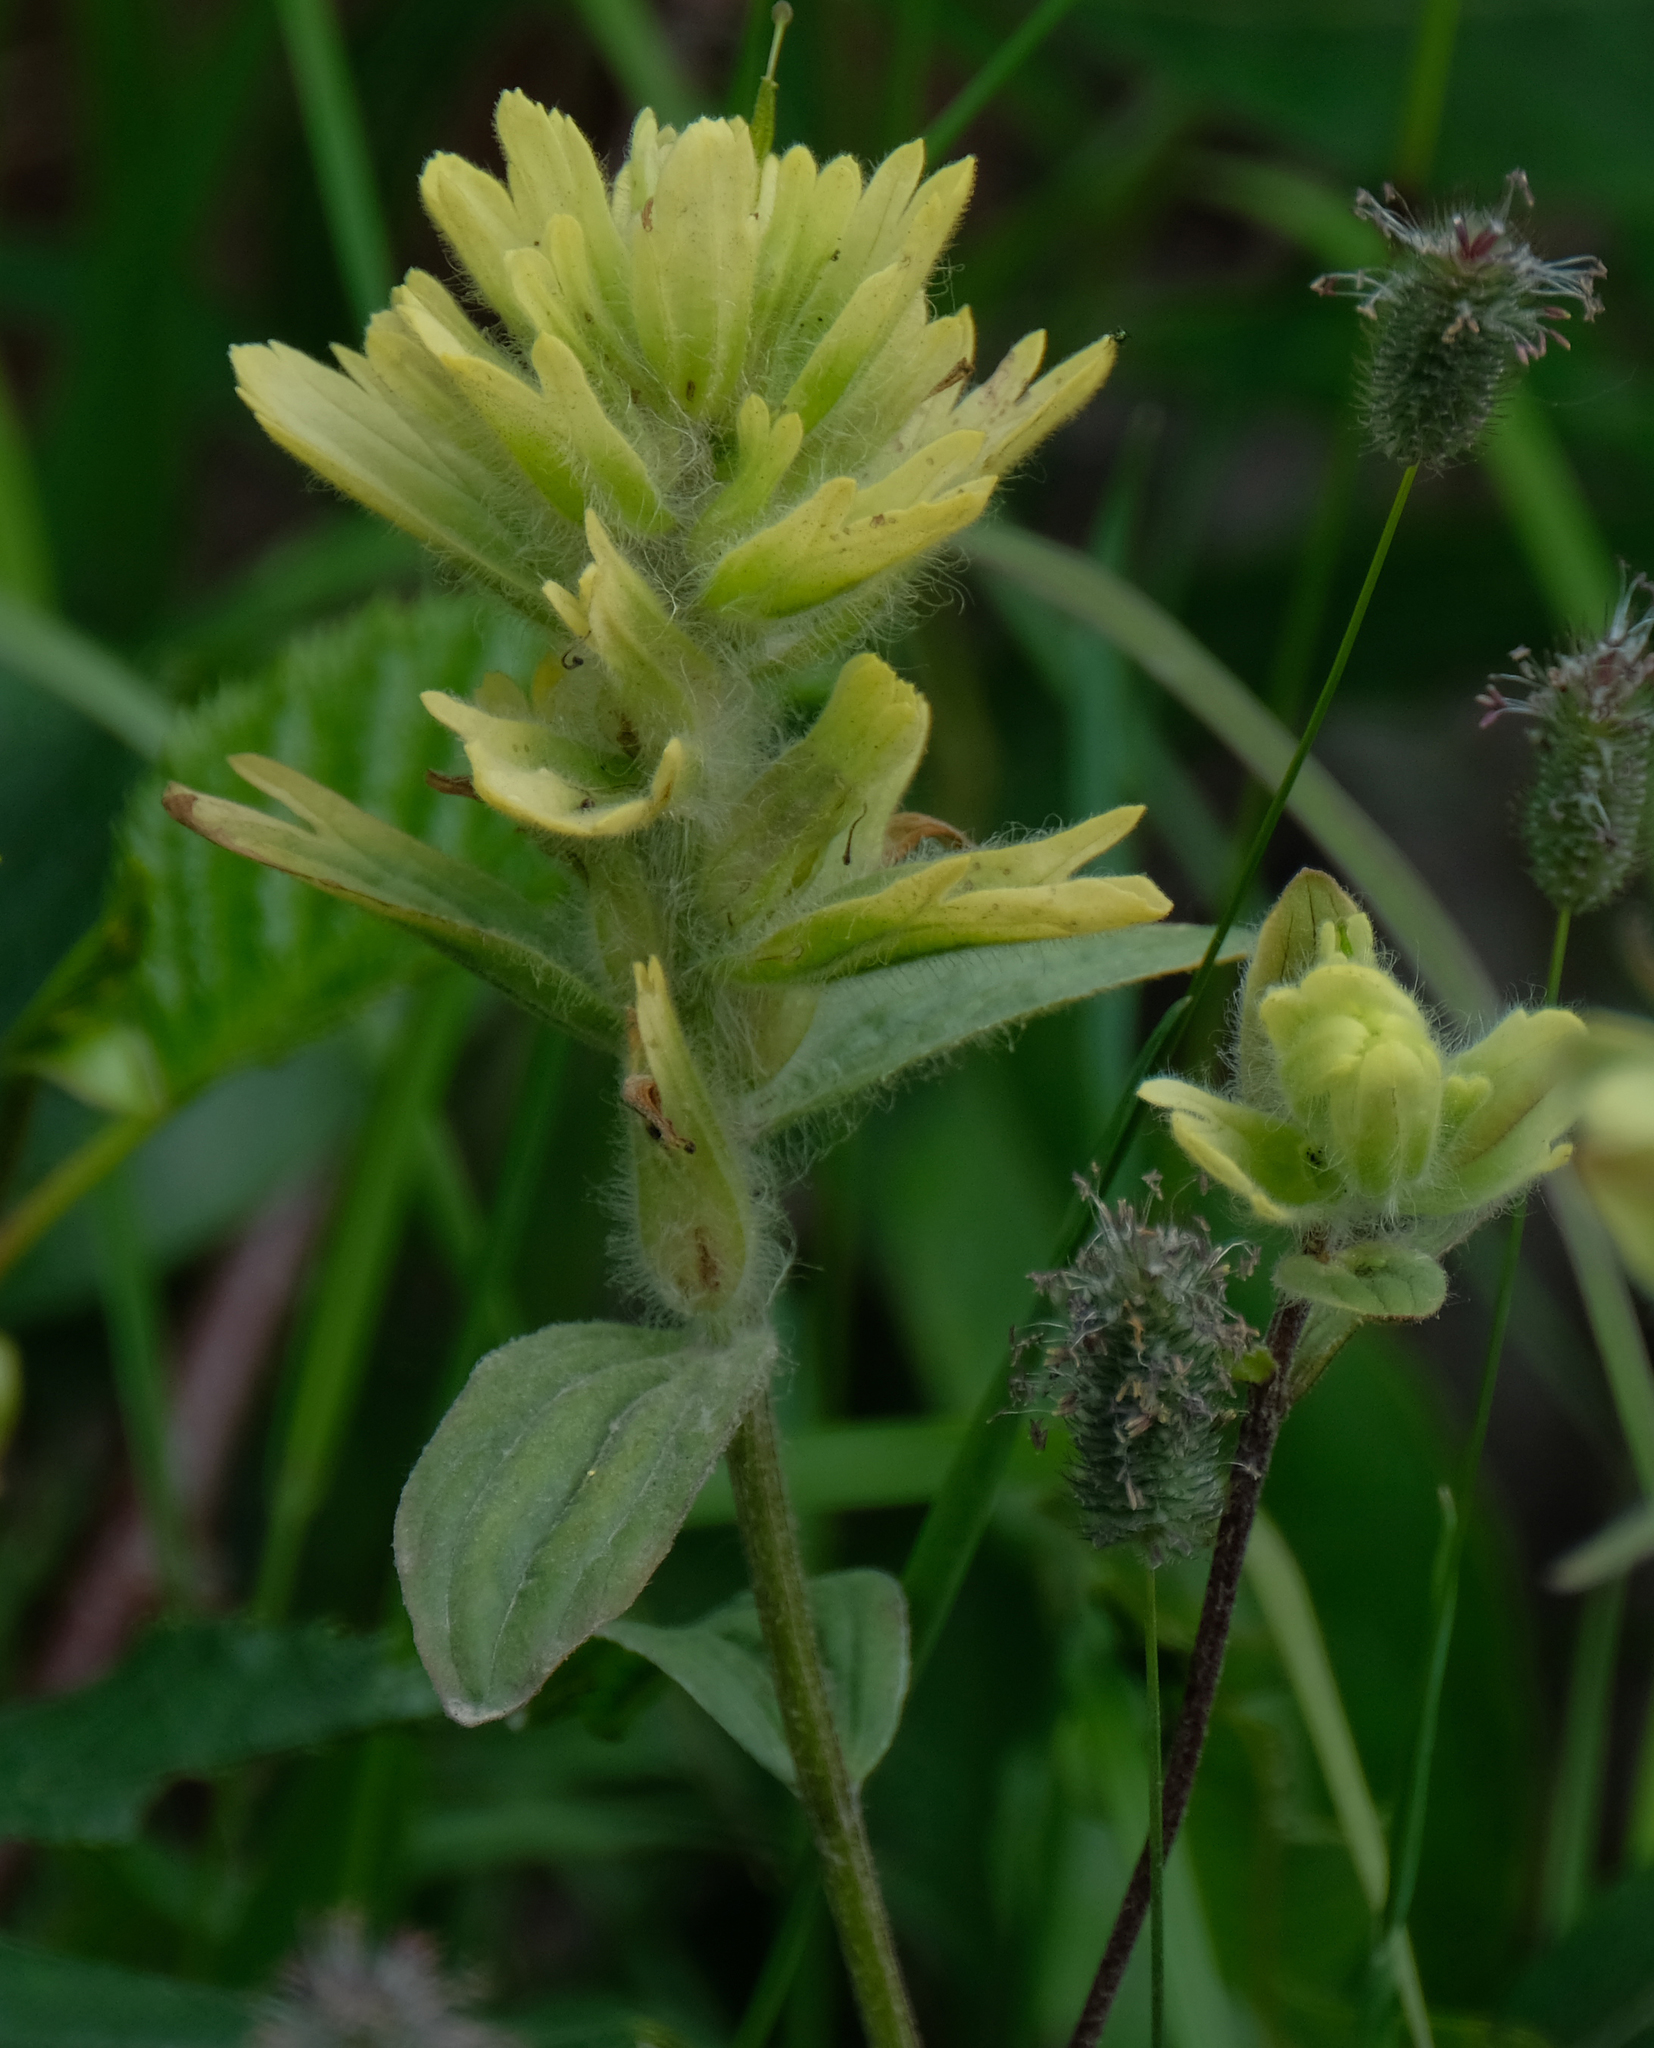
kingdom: Plantae
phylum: Tracheophyta
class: Magnoliopsida
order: Lamiales
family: Orobanchaceae
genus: Castilleja
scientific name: Castilleja unalaschcensis
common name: Unalaska paintbrush
